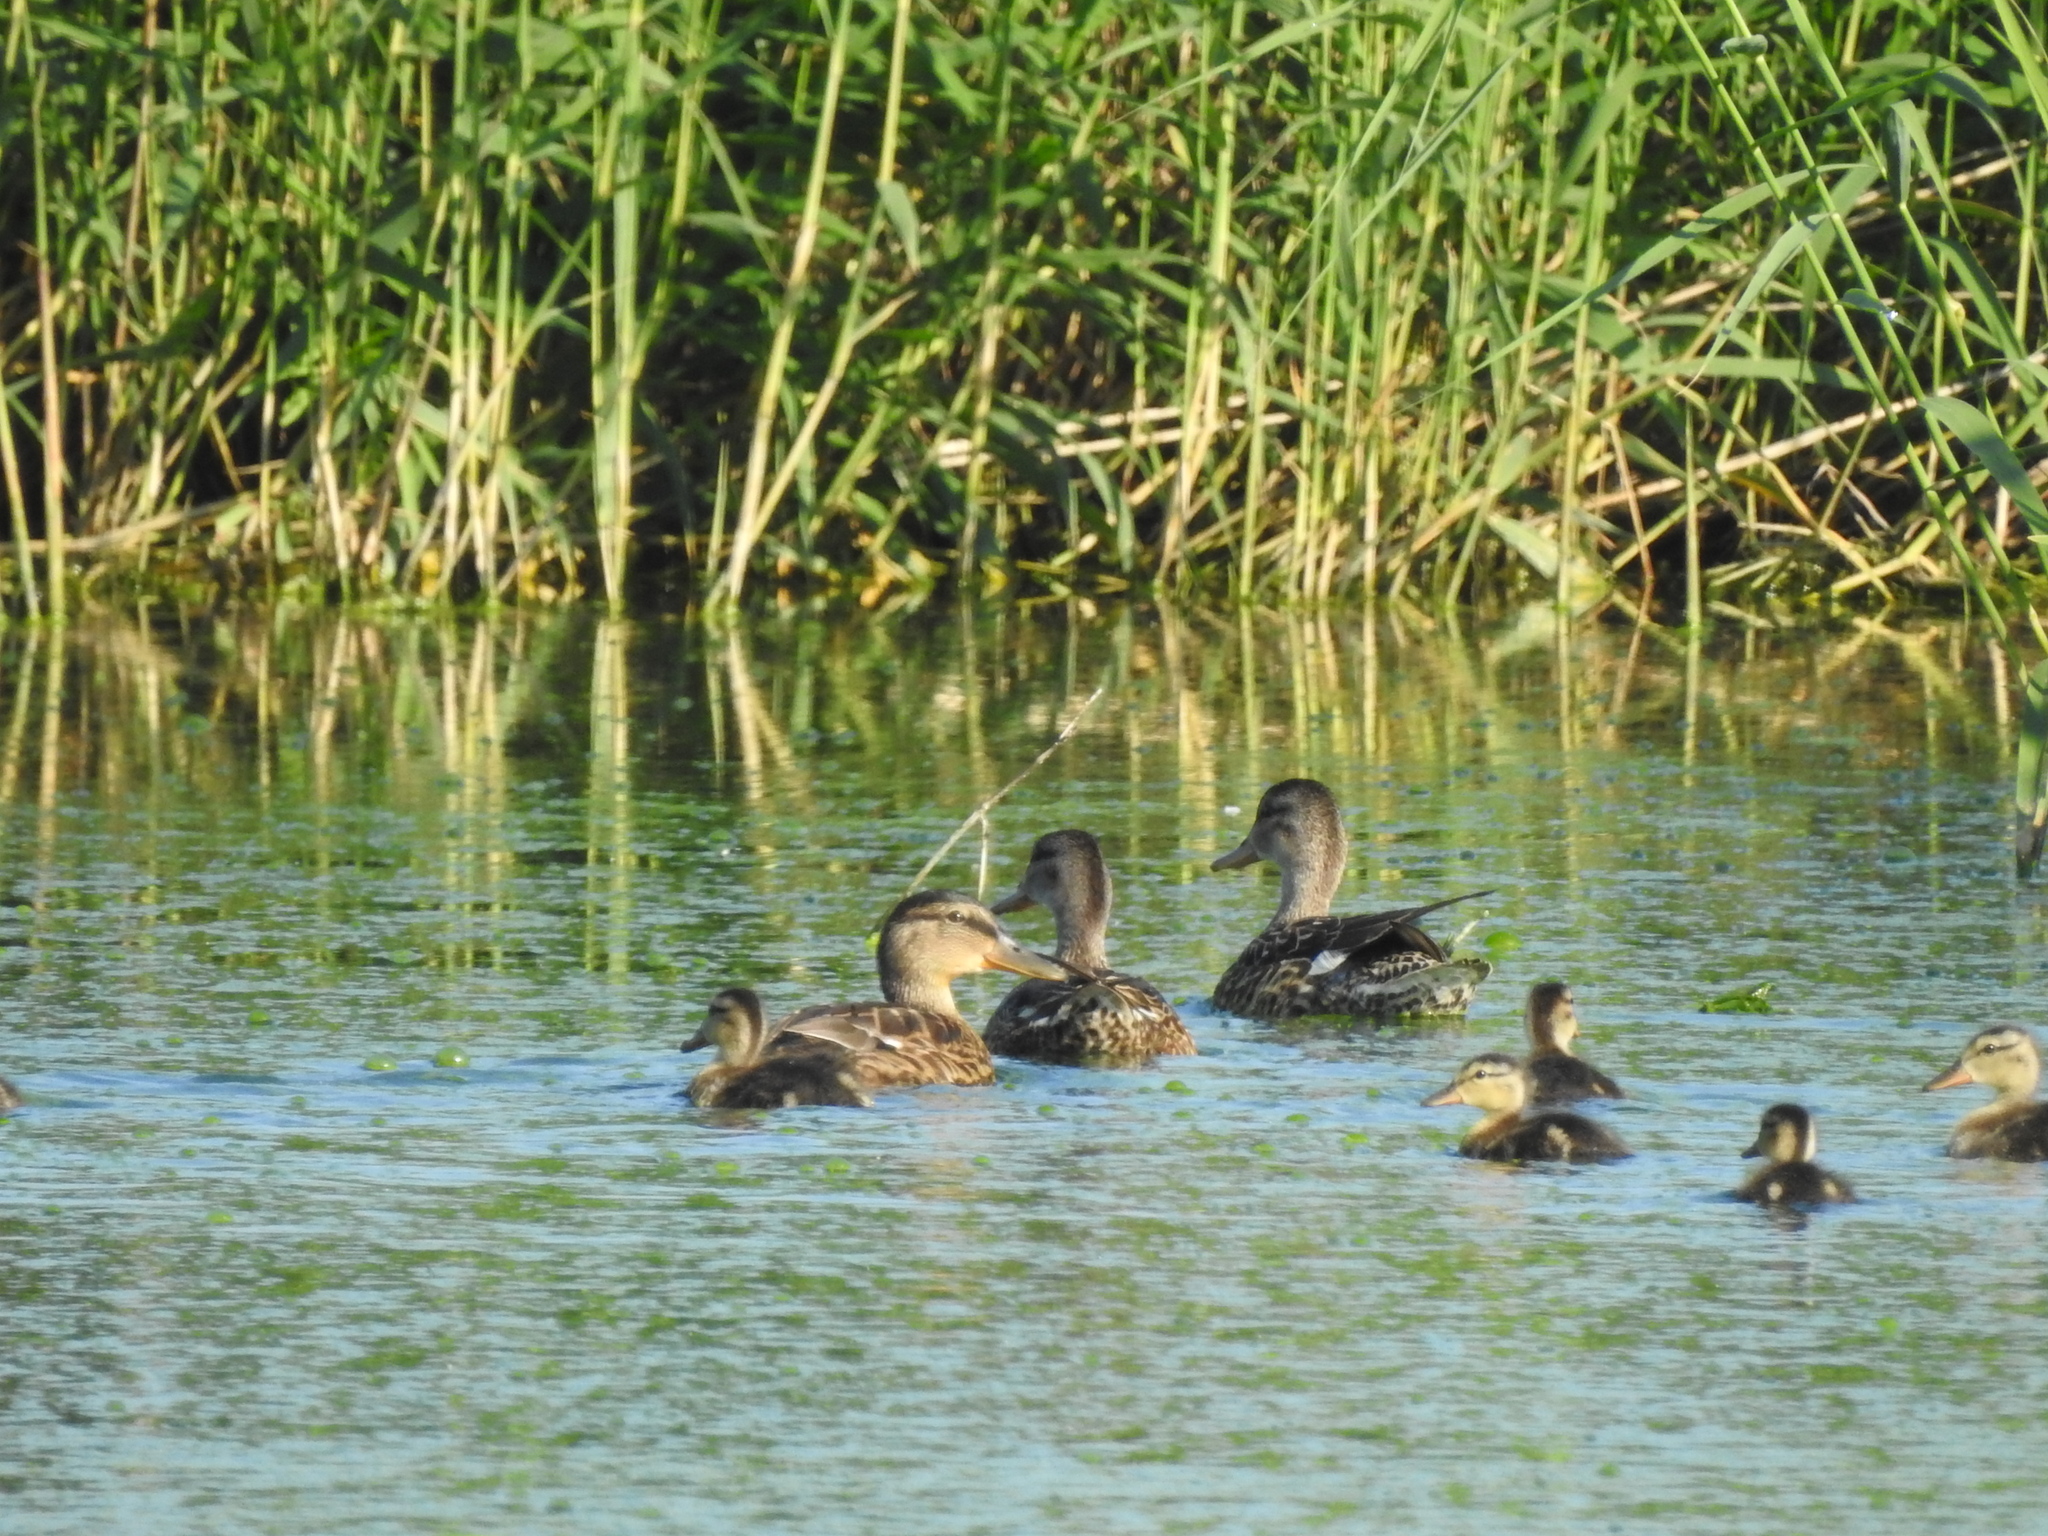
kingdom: Animalia
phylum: Chordata
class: Aves
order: Anseriformes
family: Anatidae
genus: Mareca
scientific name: Mareca strepera
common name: Gadwall
